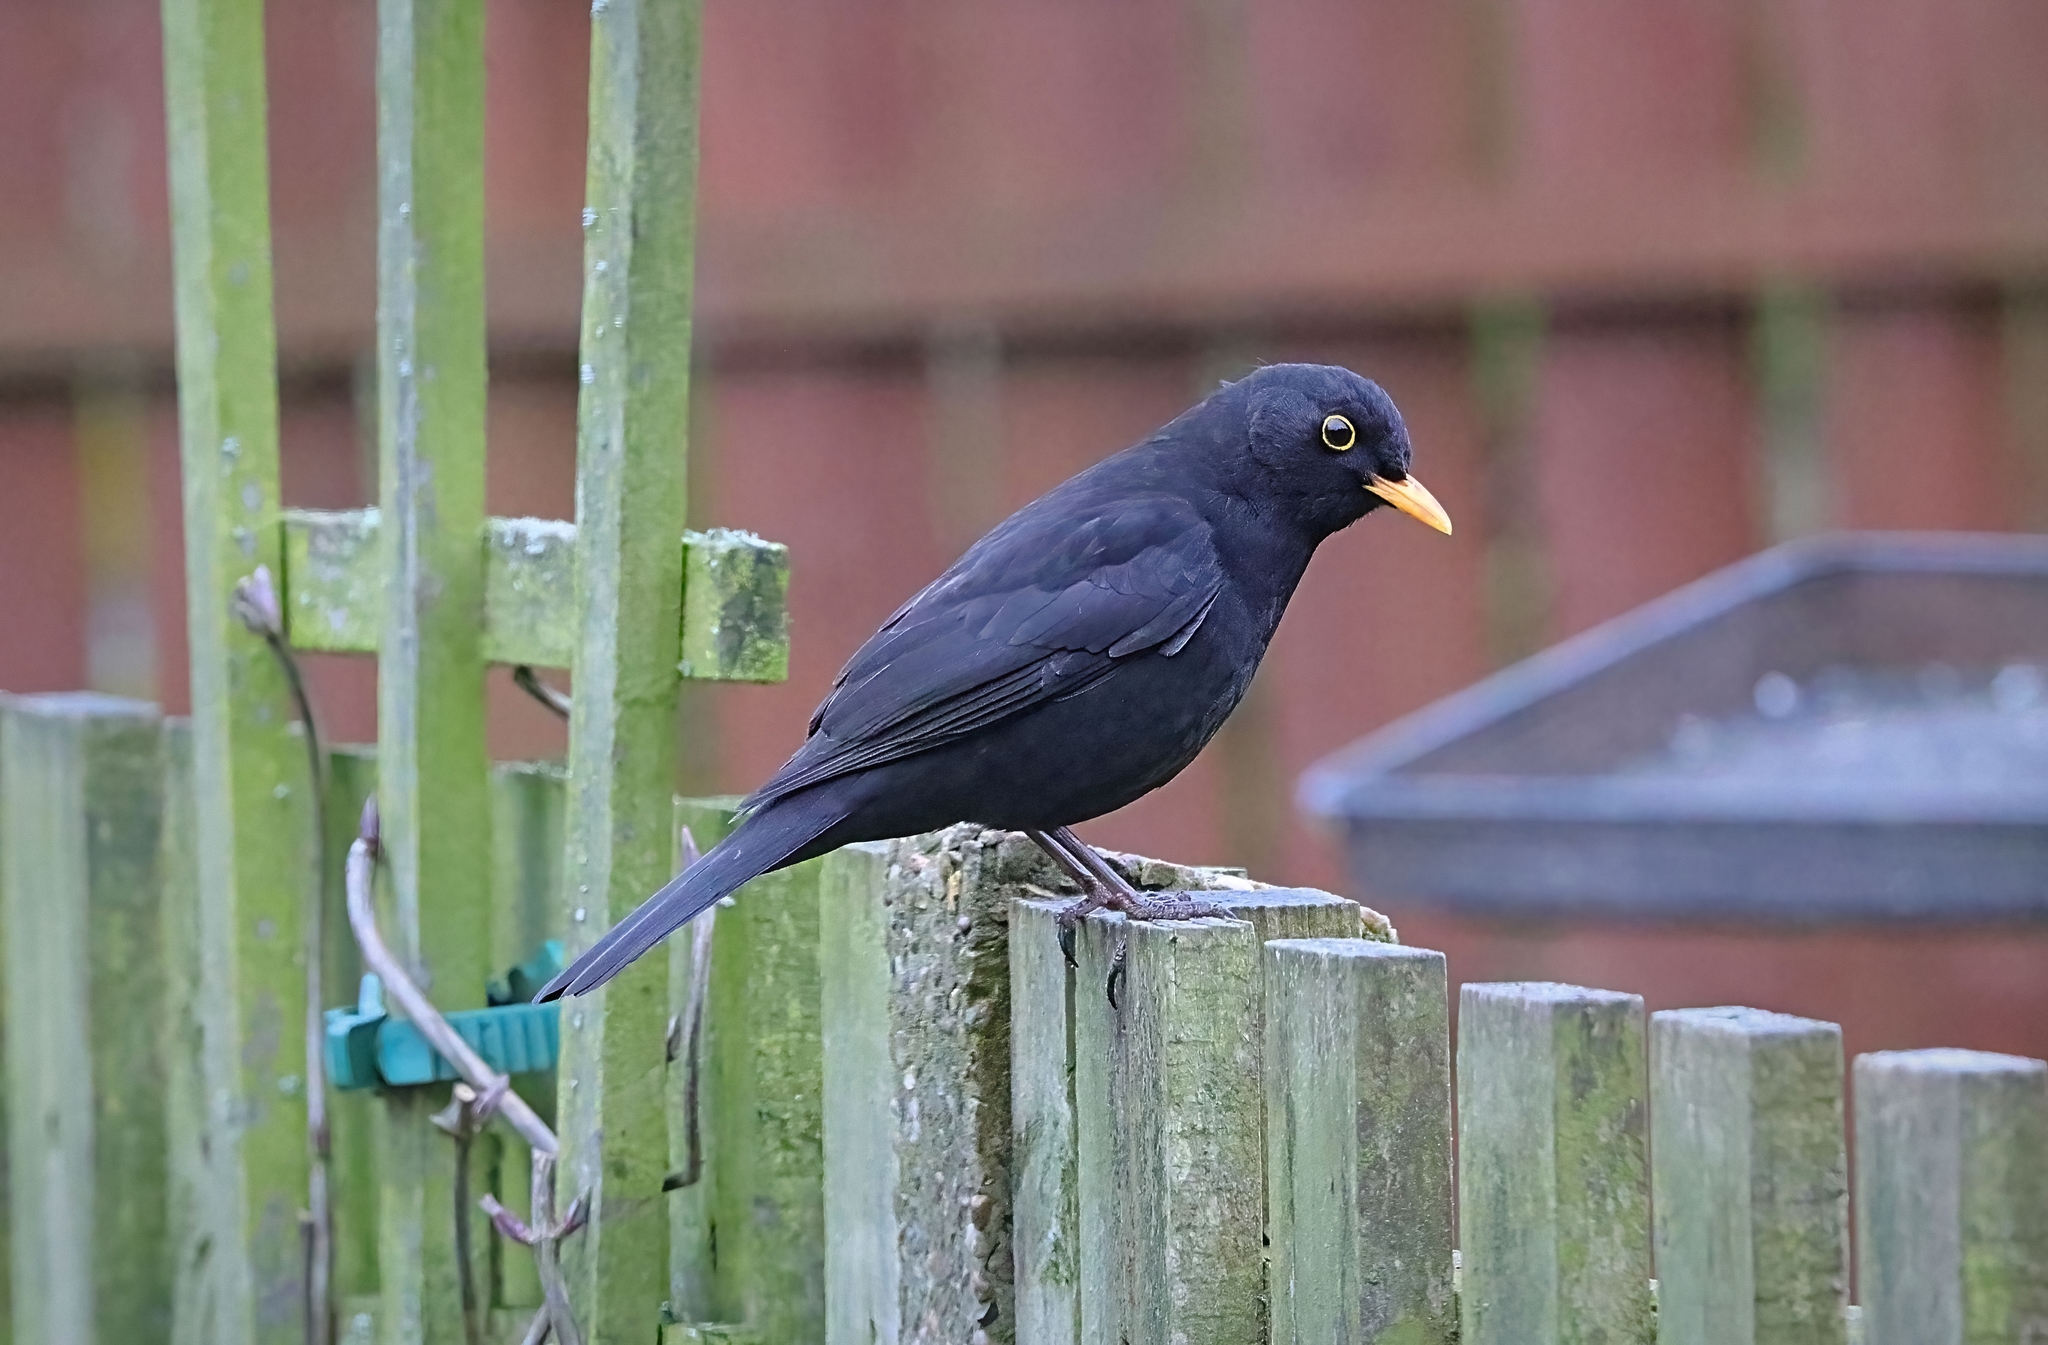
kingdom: Animalia
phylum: Chordata
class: Aves
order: Passeriformes
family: Turdidae
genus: Turdus
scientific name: Turdus merula
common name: Common blackbird
